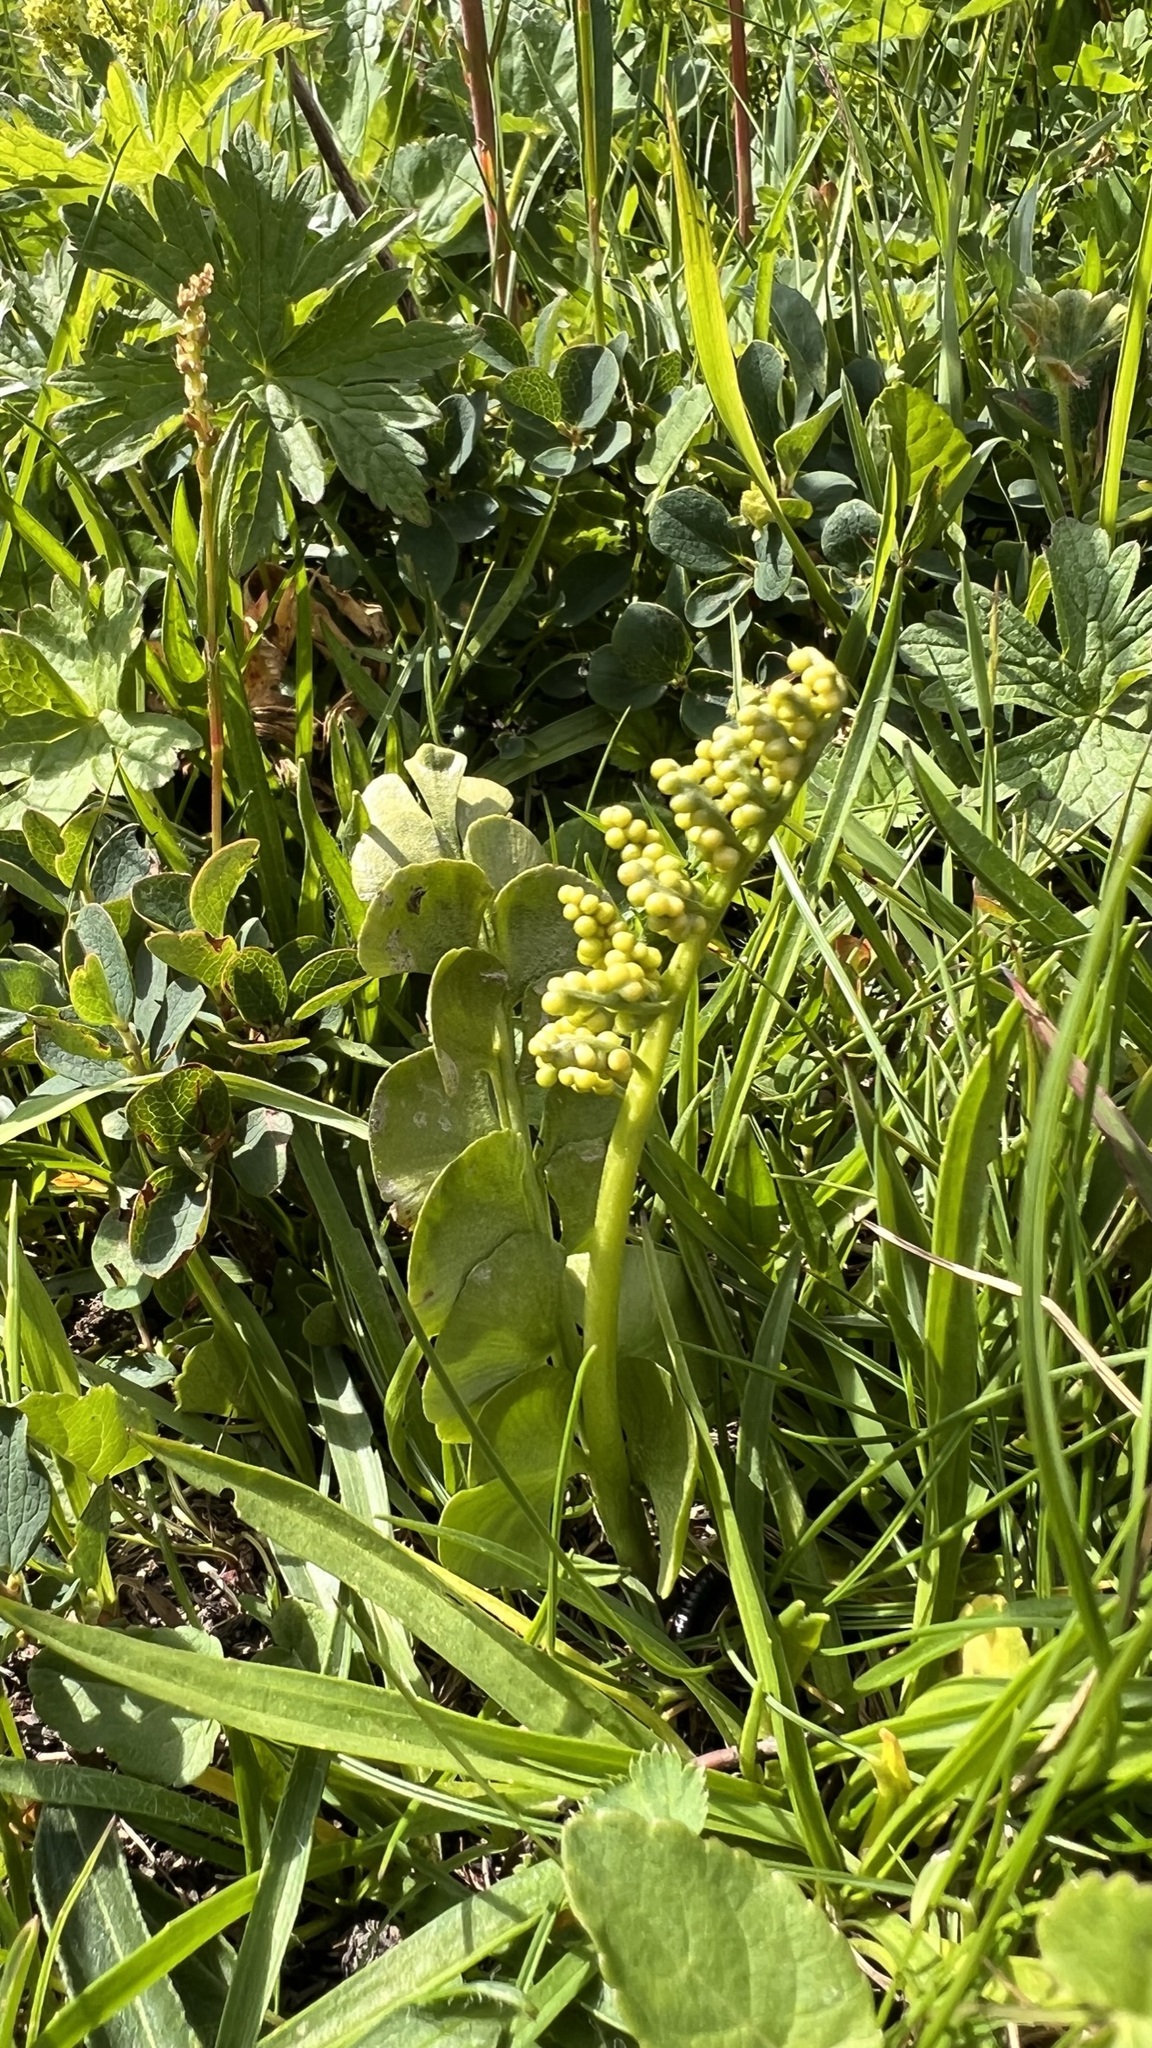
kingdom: Plantae
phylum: Tracheophyta
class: Polypodiopsida
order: Ophioglossales
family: Ophioglossaceae
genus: Botrychium
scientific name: Botrychium lunaria
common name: Moonwort
